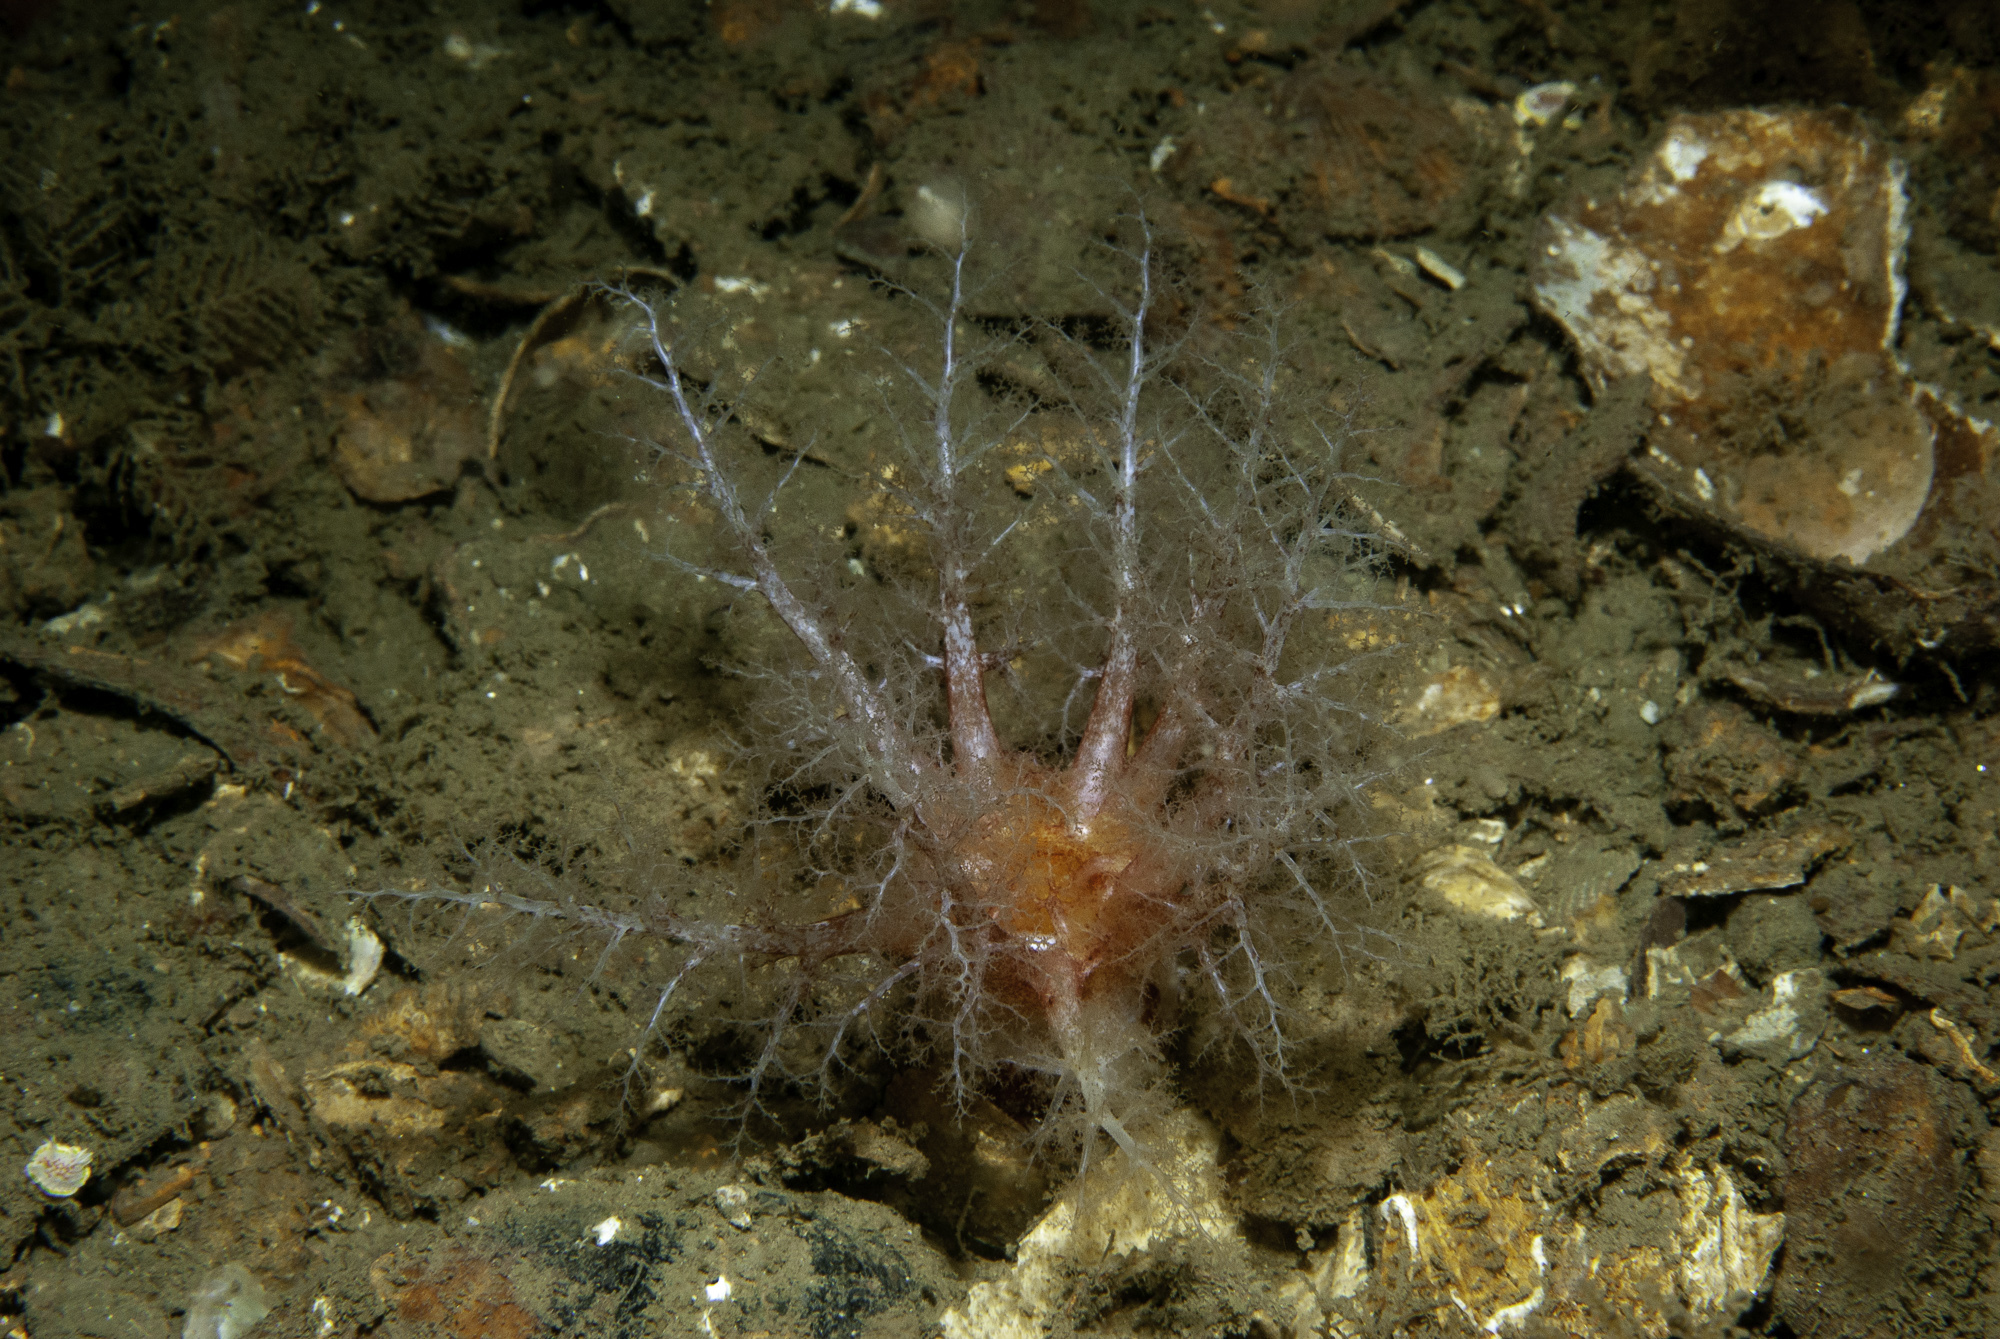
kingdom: Animalia
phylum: Echinodermata
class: Holothuroidea
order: Dendrochirotida
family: Cucumariidae
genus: Thyonidium
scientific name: Thyonidium drummondii
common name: Drummond's sea cucumber
